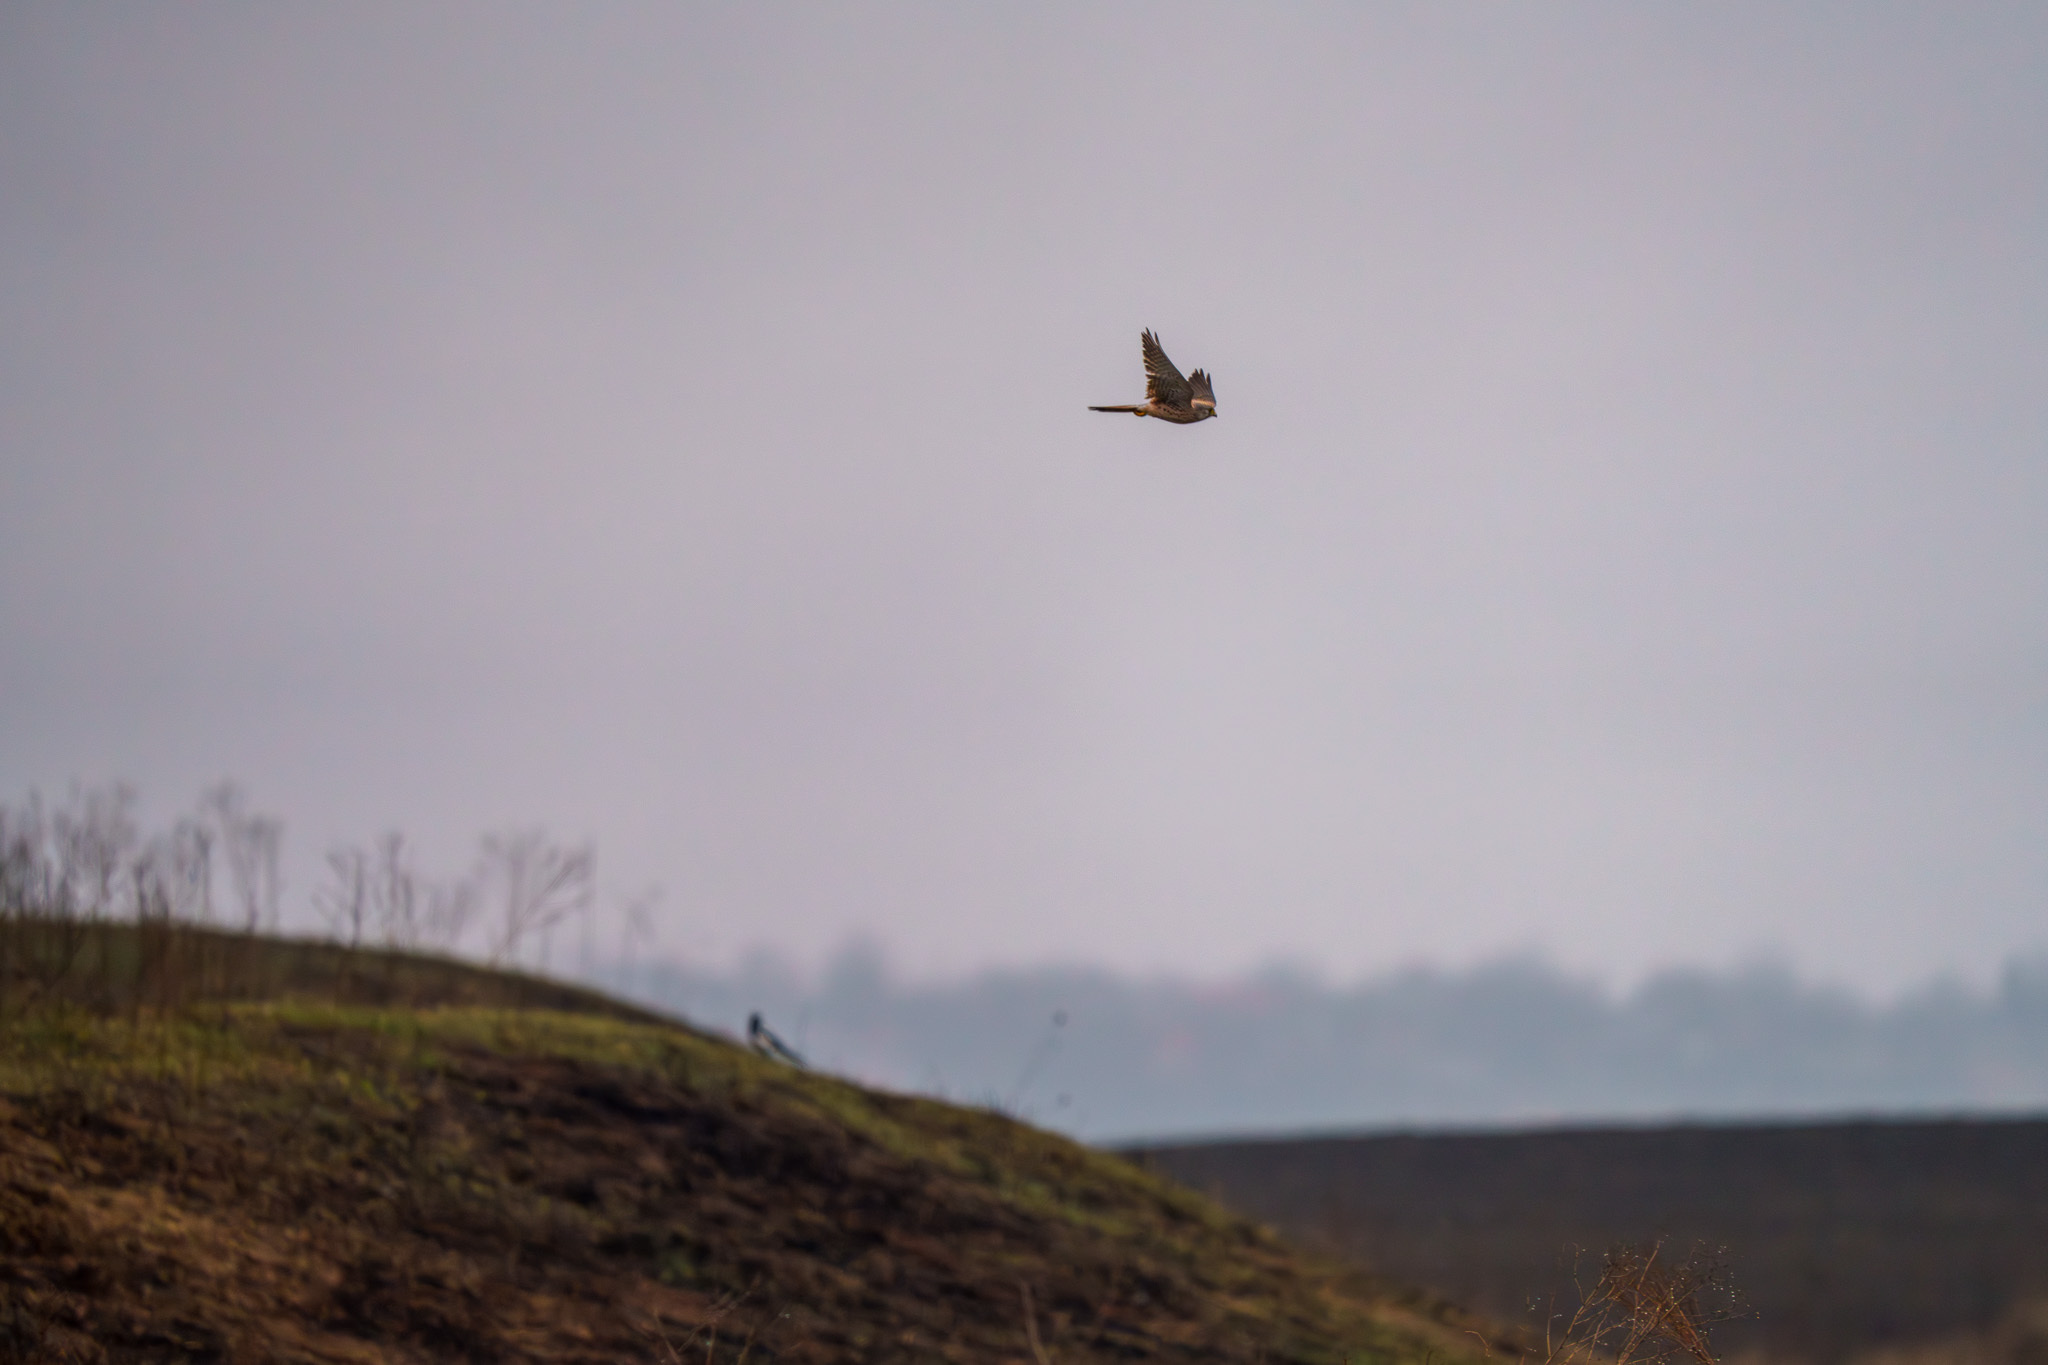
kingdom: Animalia
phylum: Chordata
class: Aves
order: Falconiformes
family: Falconidae
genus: Falco
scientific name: Falco tinnunculus
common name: Common kestrel
